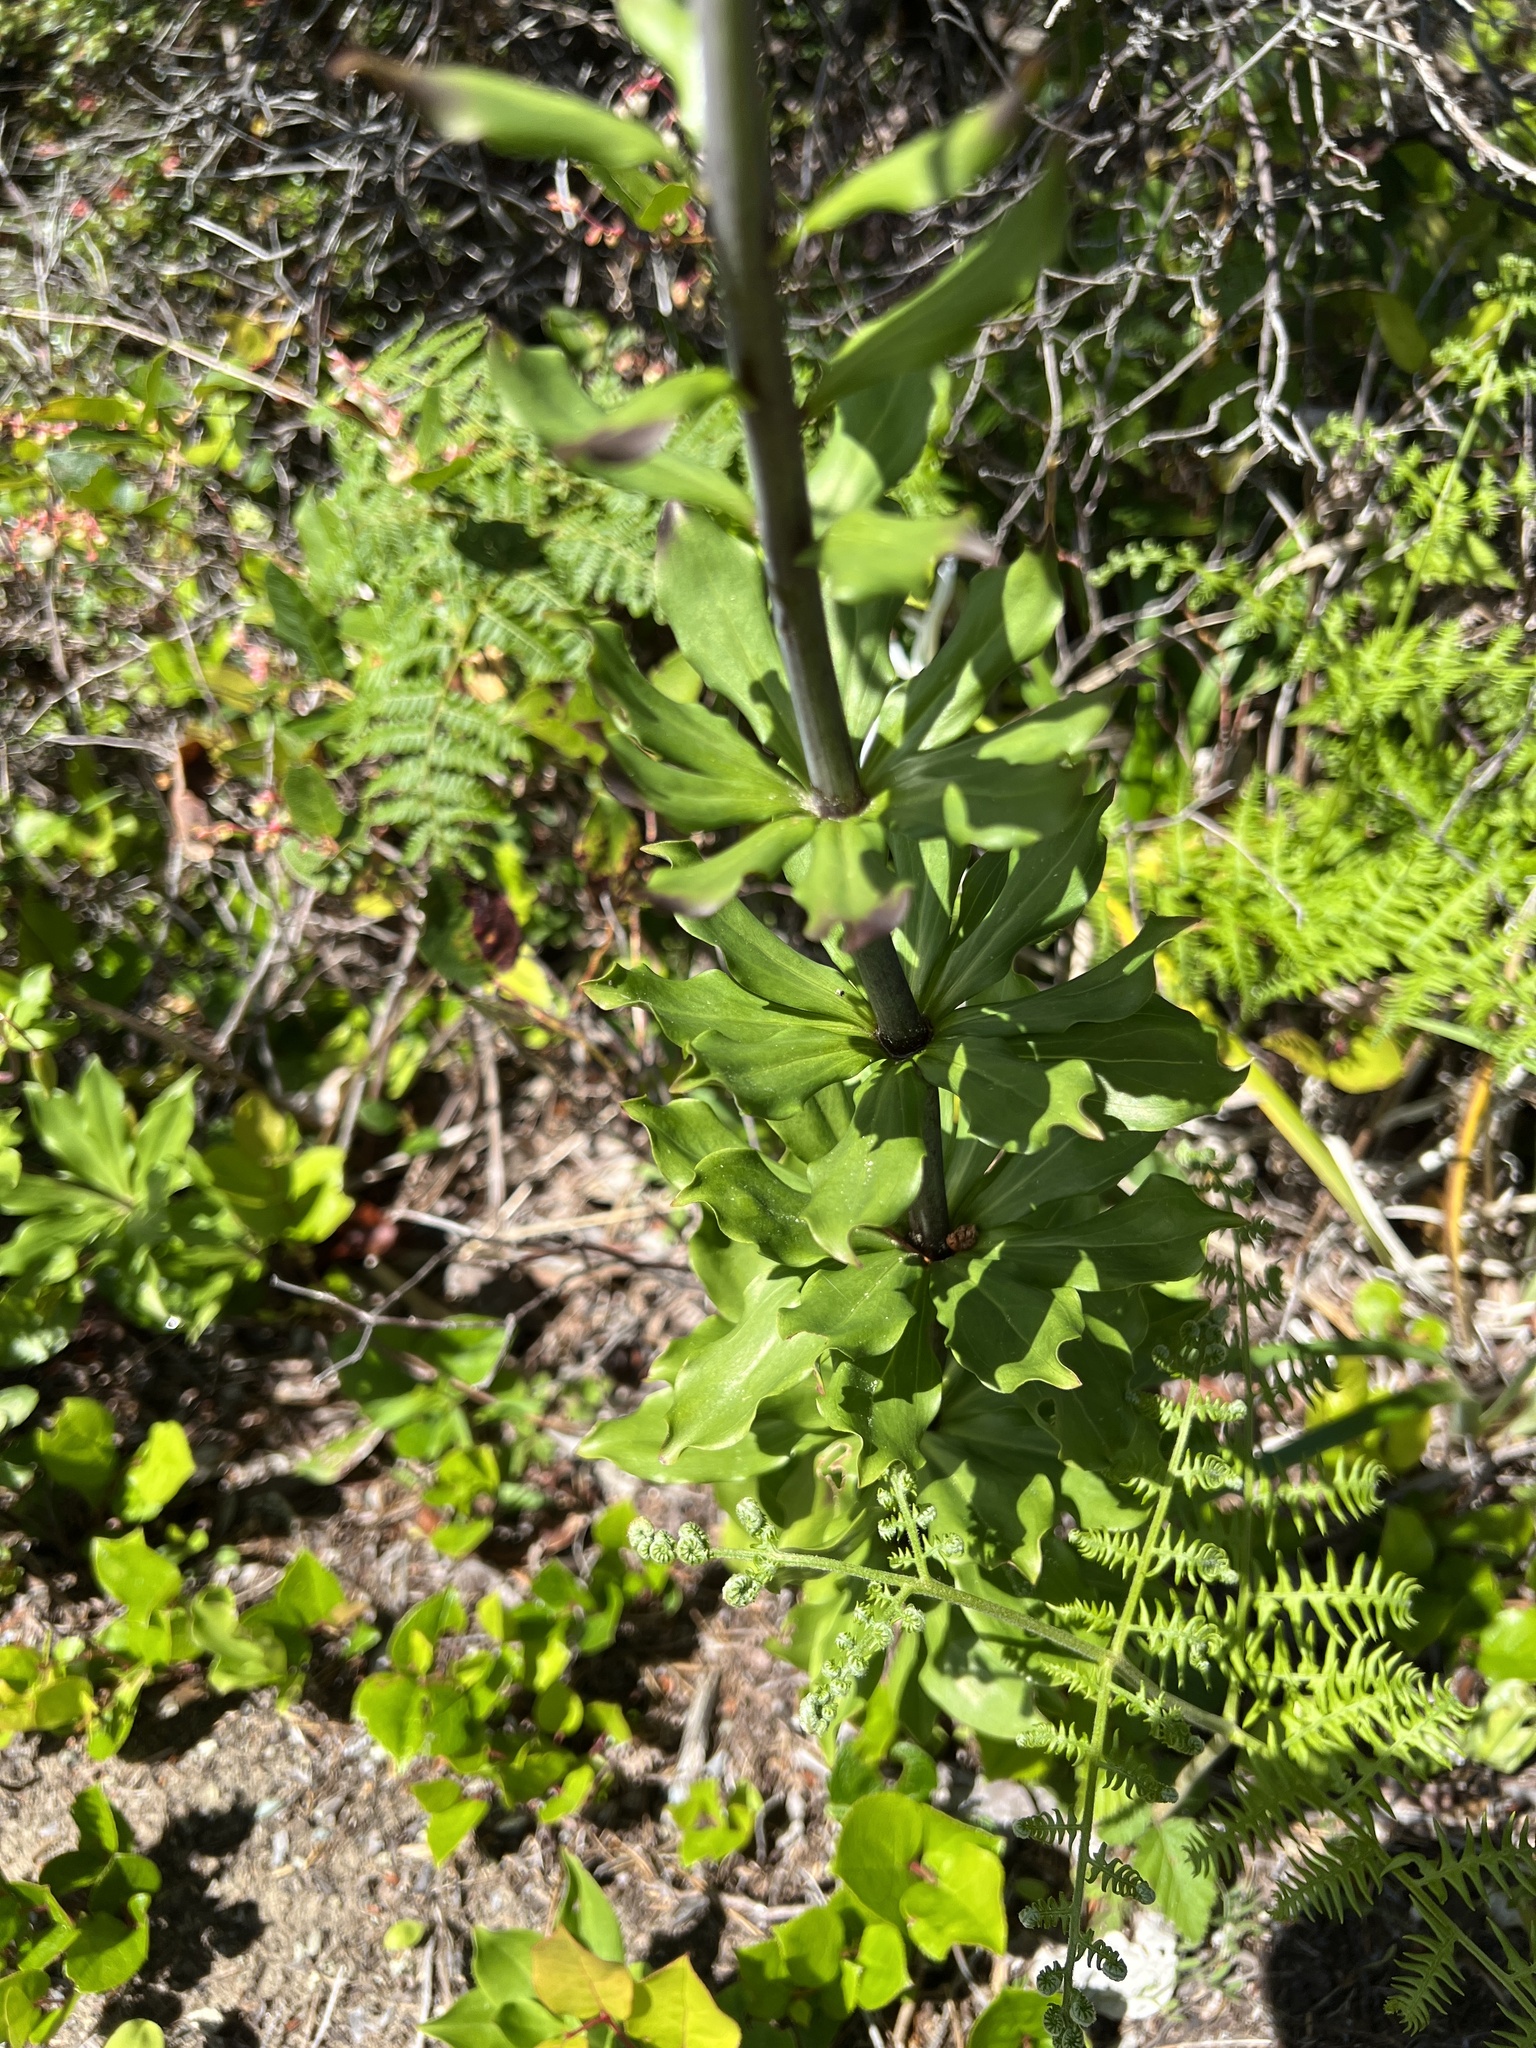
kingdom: Plantae
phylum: Tracheophyta
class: Liliopsida
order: Liliales
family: Liliaceae
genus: Lilium
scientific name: Lilium columbianum
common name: Columbia lily
